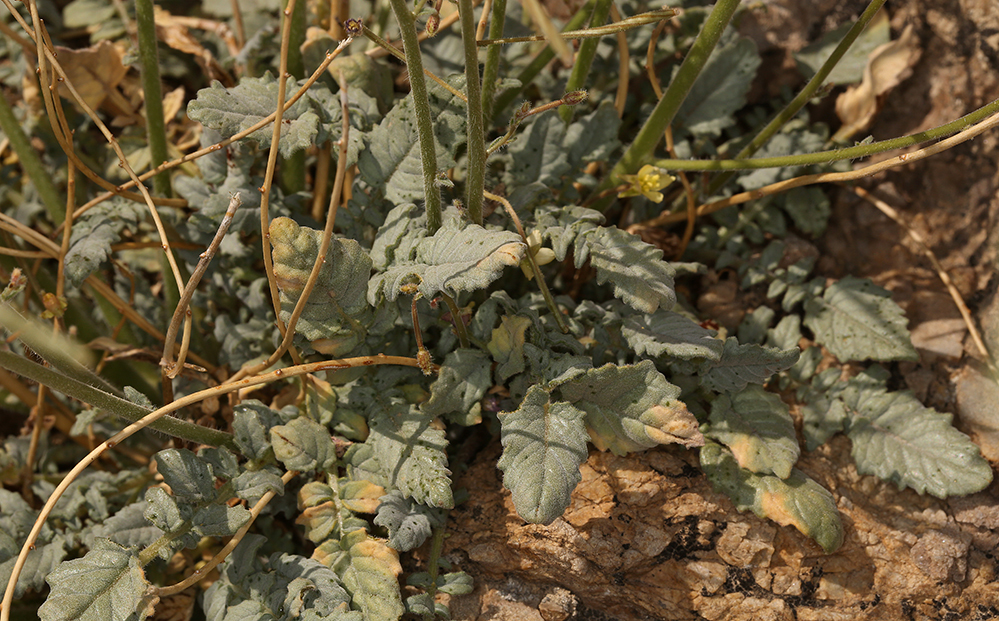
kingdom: Plantae
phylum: Tracheophyta
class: Magnoliopsida
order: Myrtales
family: Onagraceae
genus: Chylismia
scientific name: Chylismia walkeri
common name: Walker's suncup
